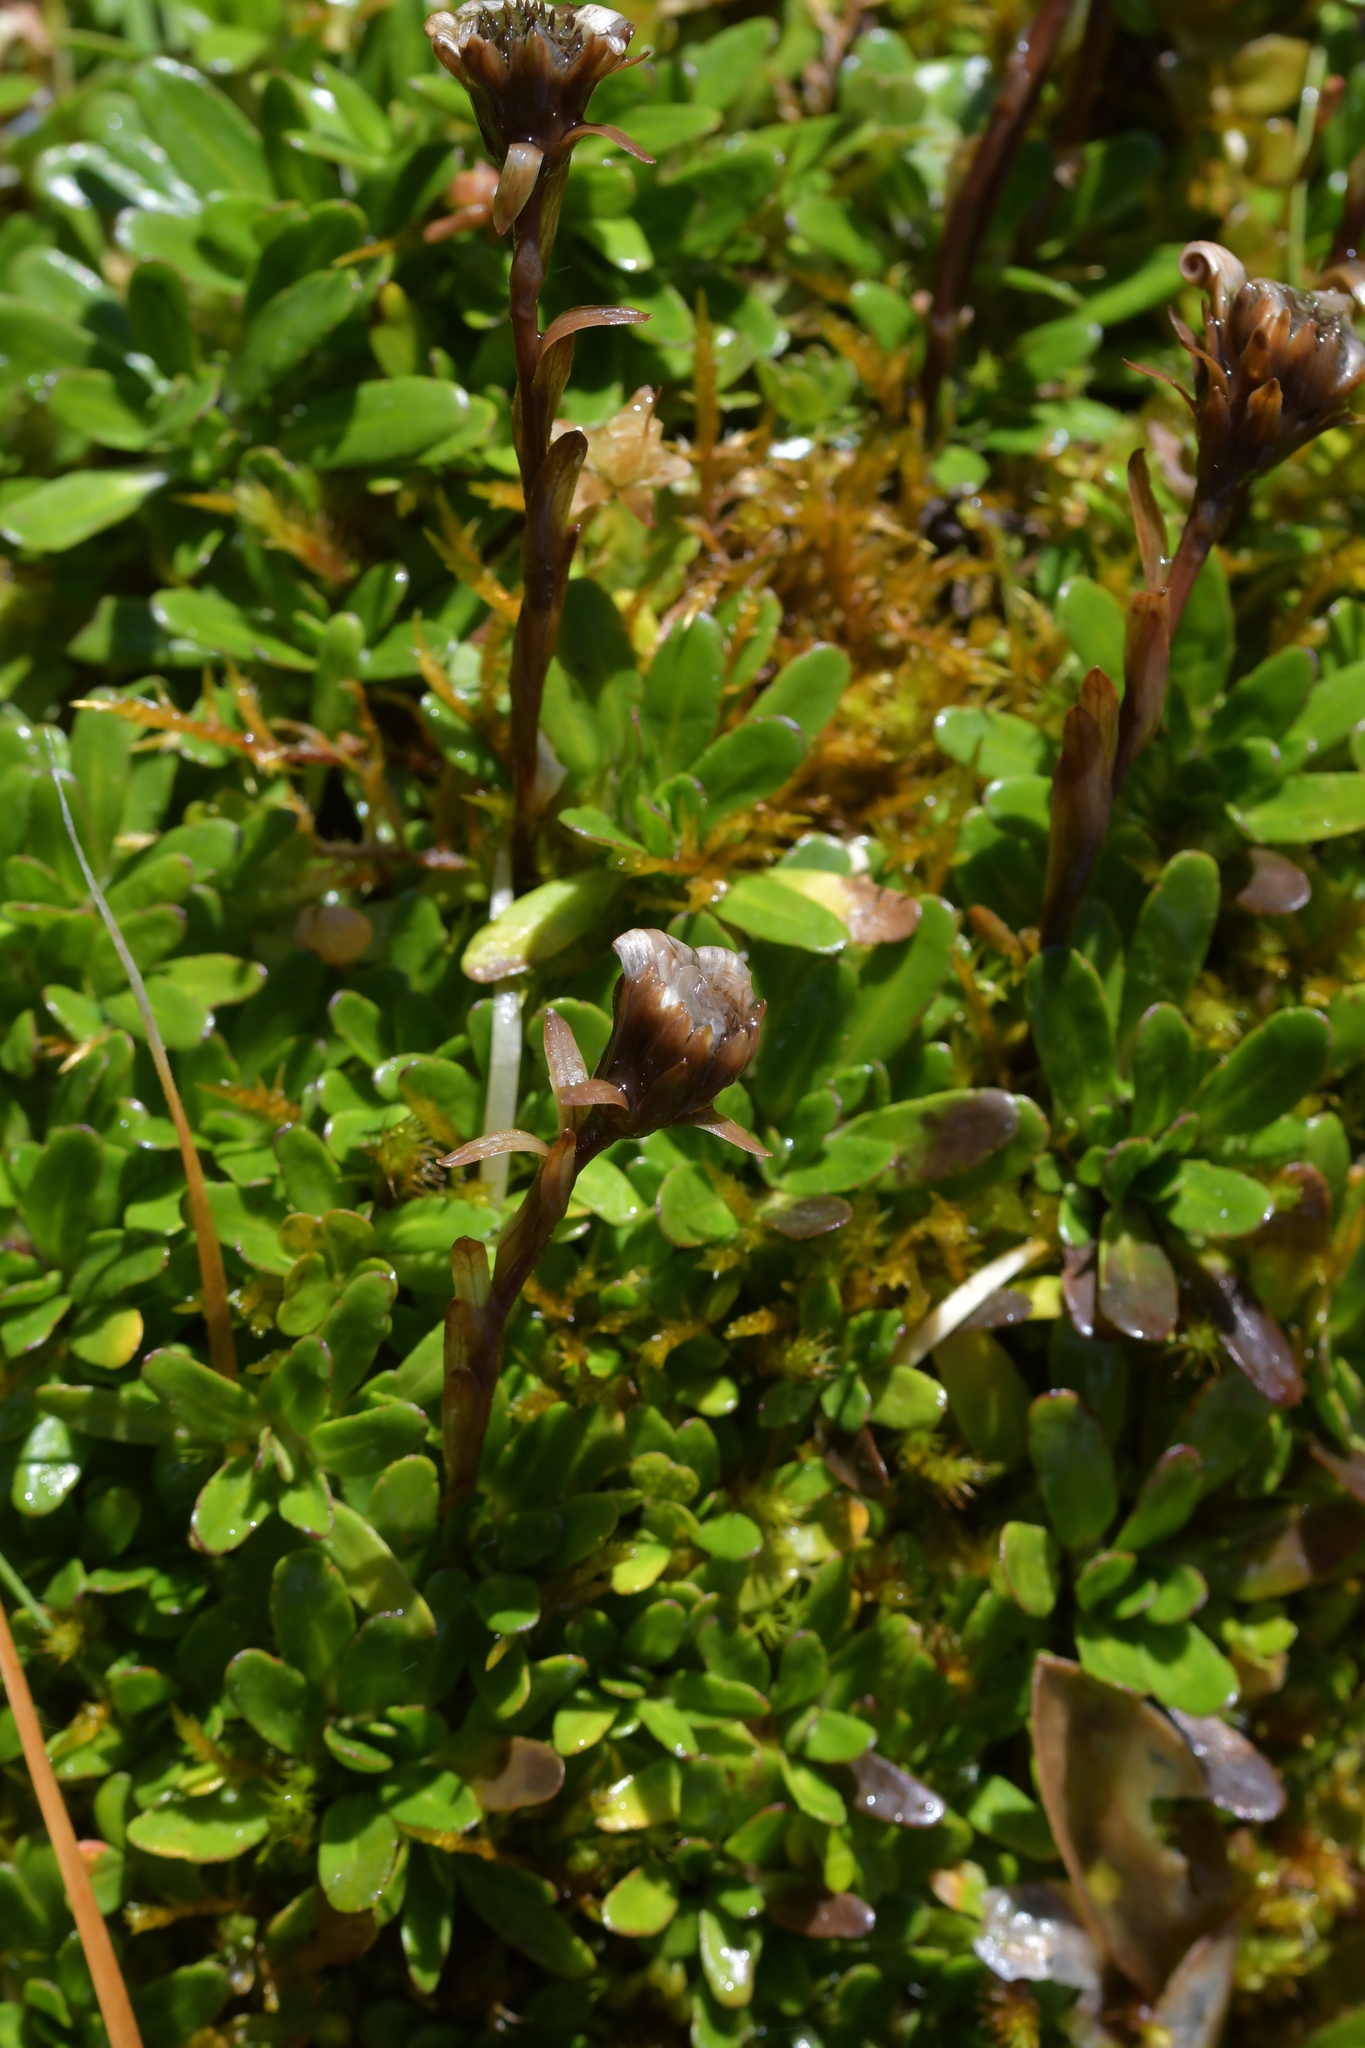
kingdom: Plantae
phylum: Tracheophyta
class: Magnoliopsida
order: Asterales
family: Asteraceae
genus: Celmisia
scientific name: Celmisia bellidioides
